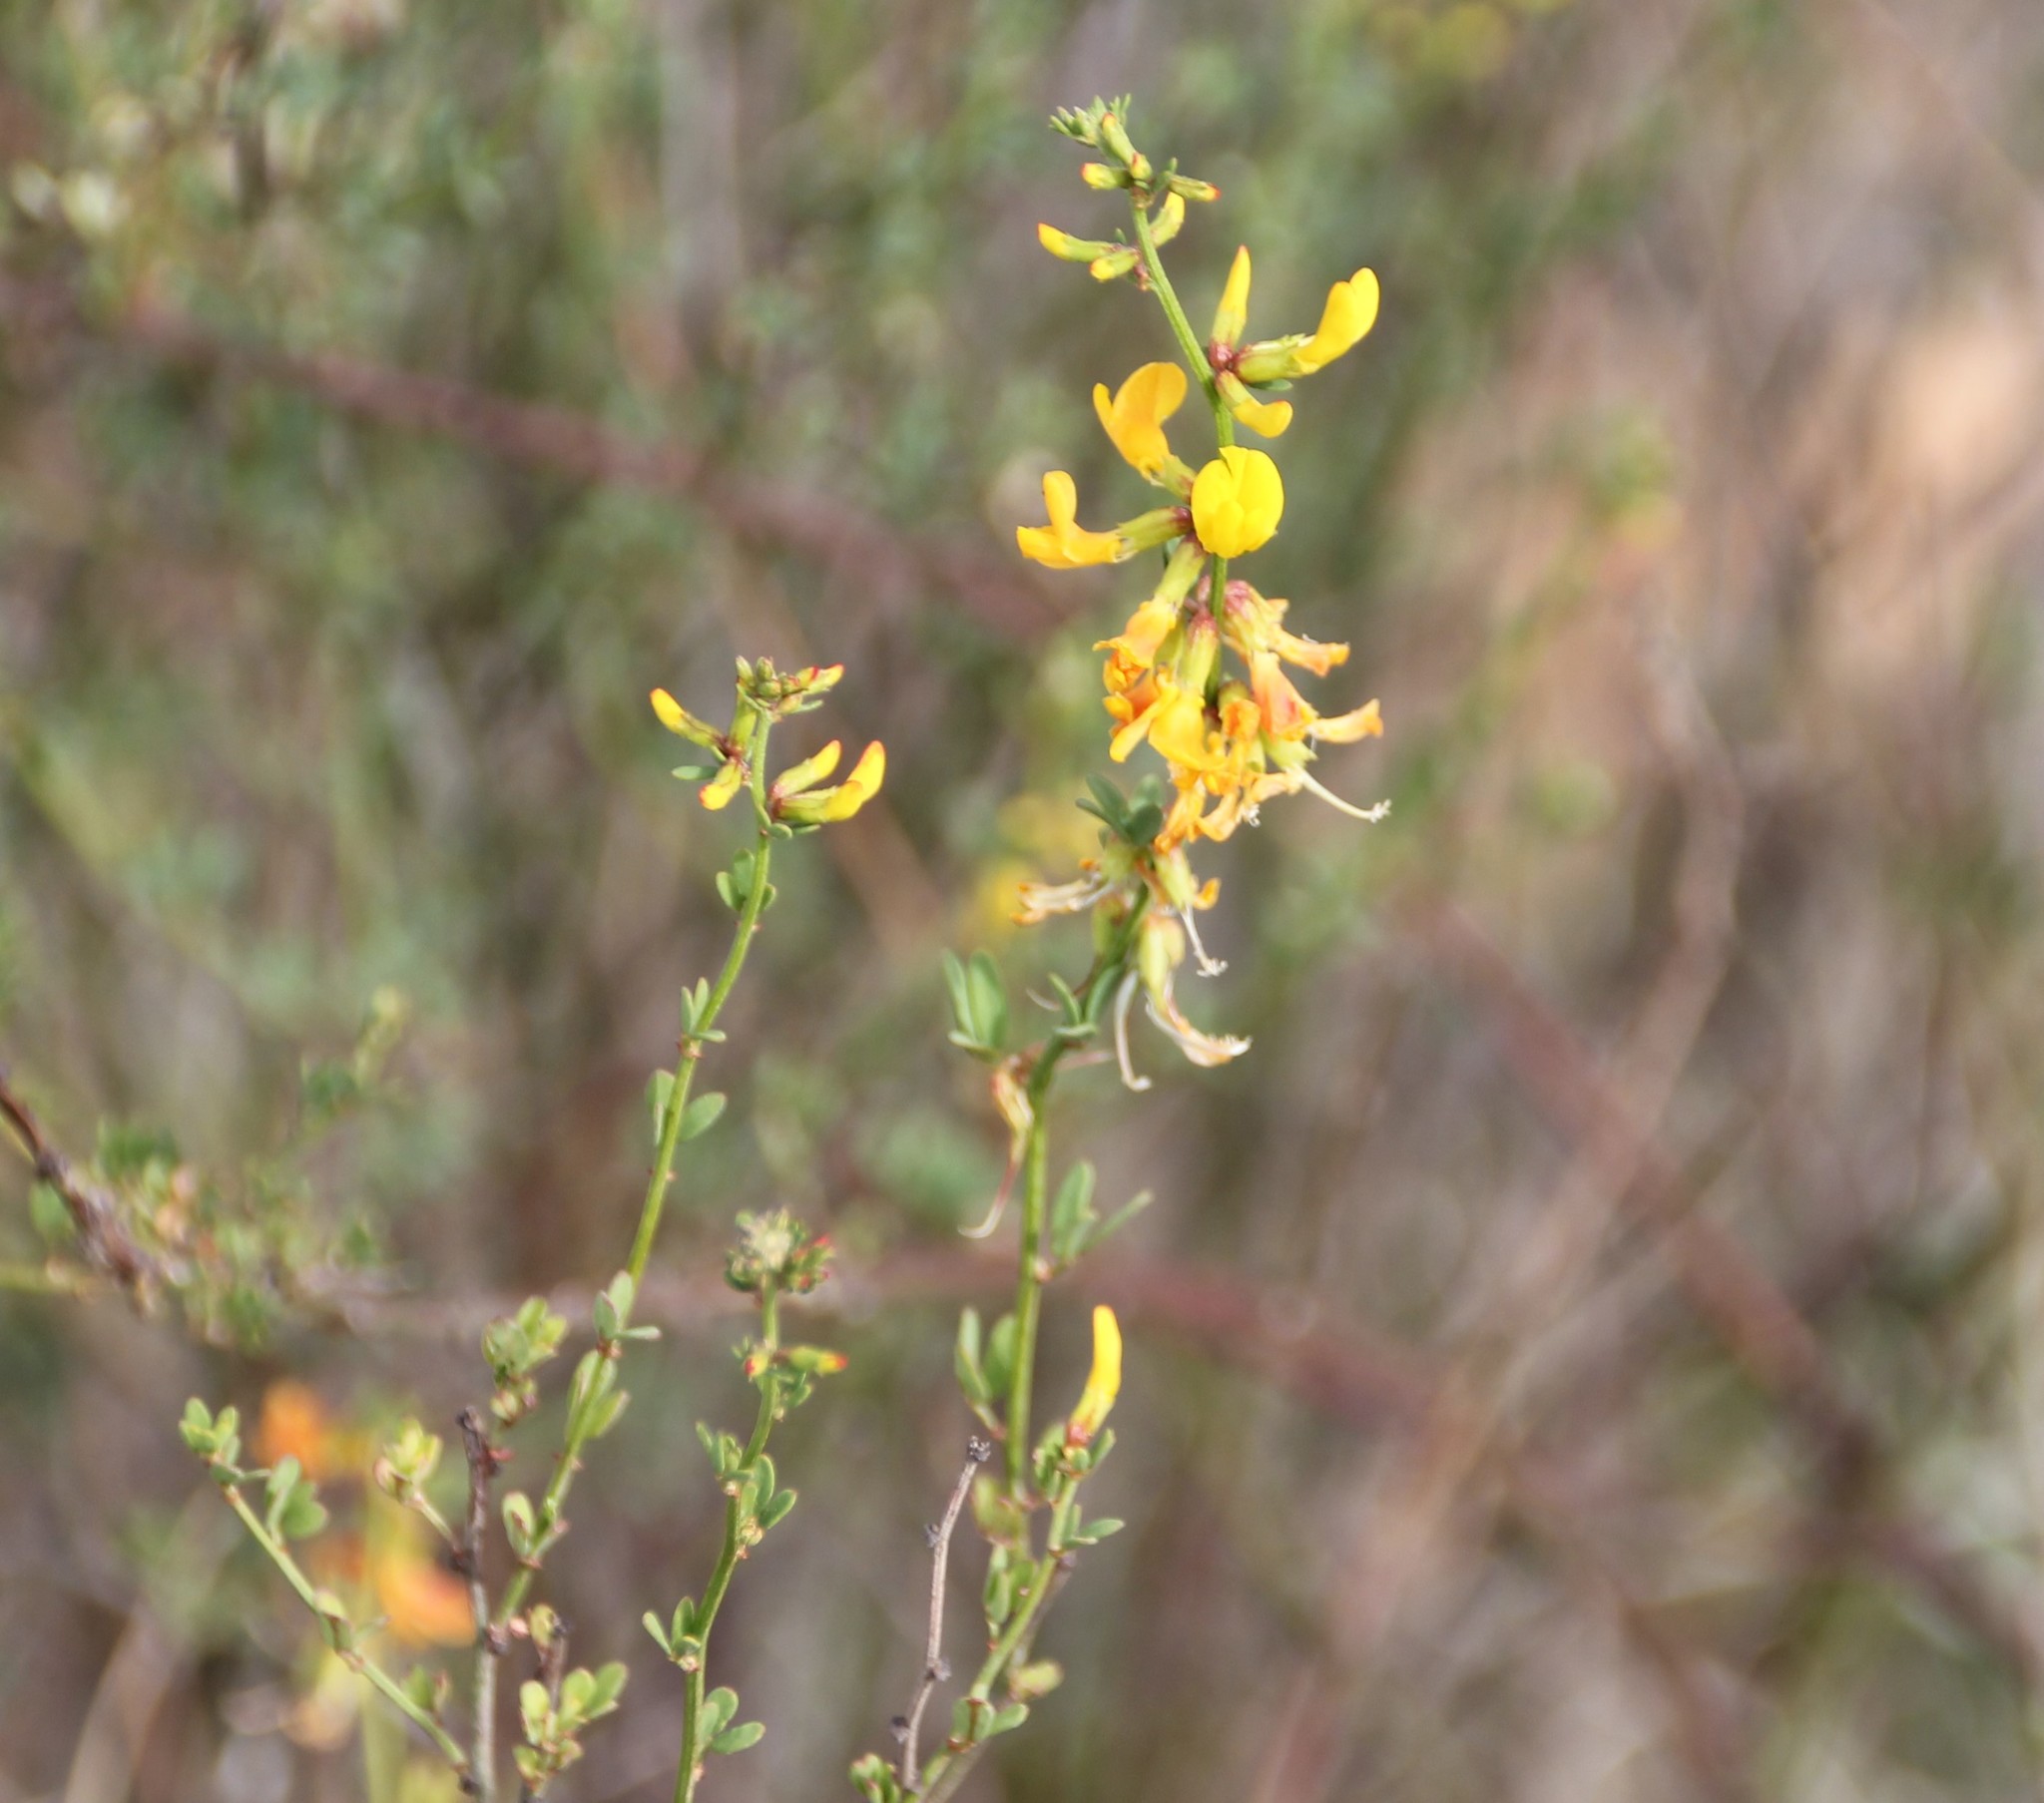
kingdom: Plantae
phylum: Tracheophyta
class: Magnoliopsida
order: Fabales
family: Fabaceae
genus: Acmispon
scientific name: Acmispon glaber
